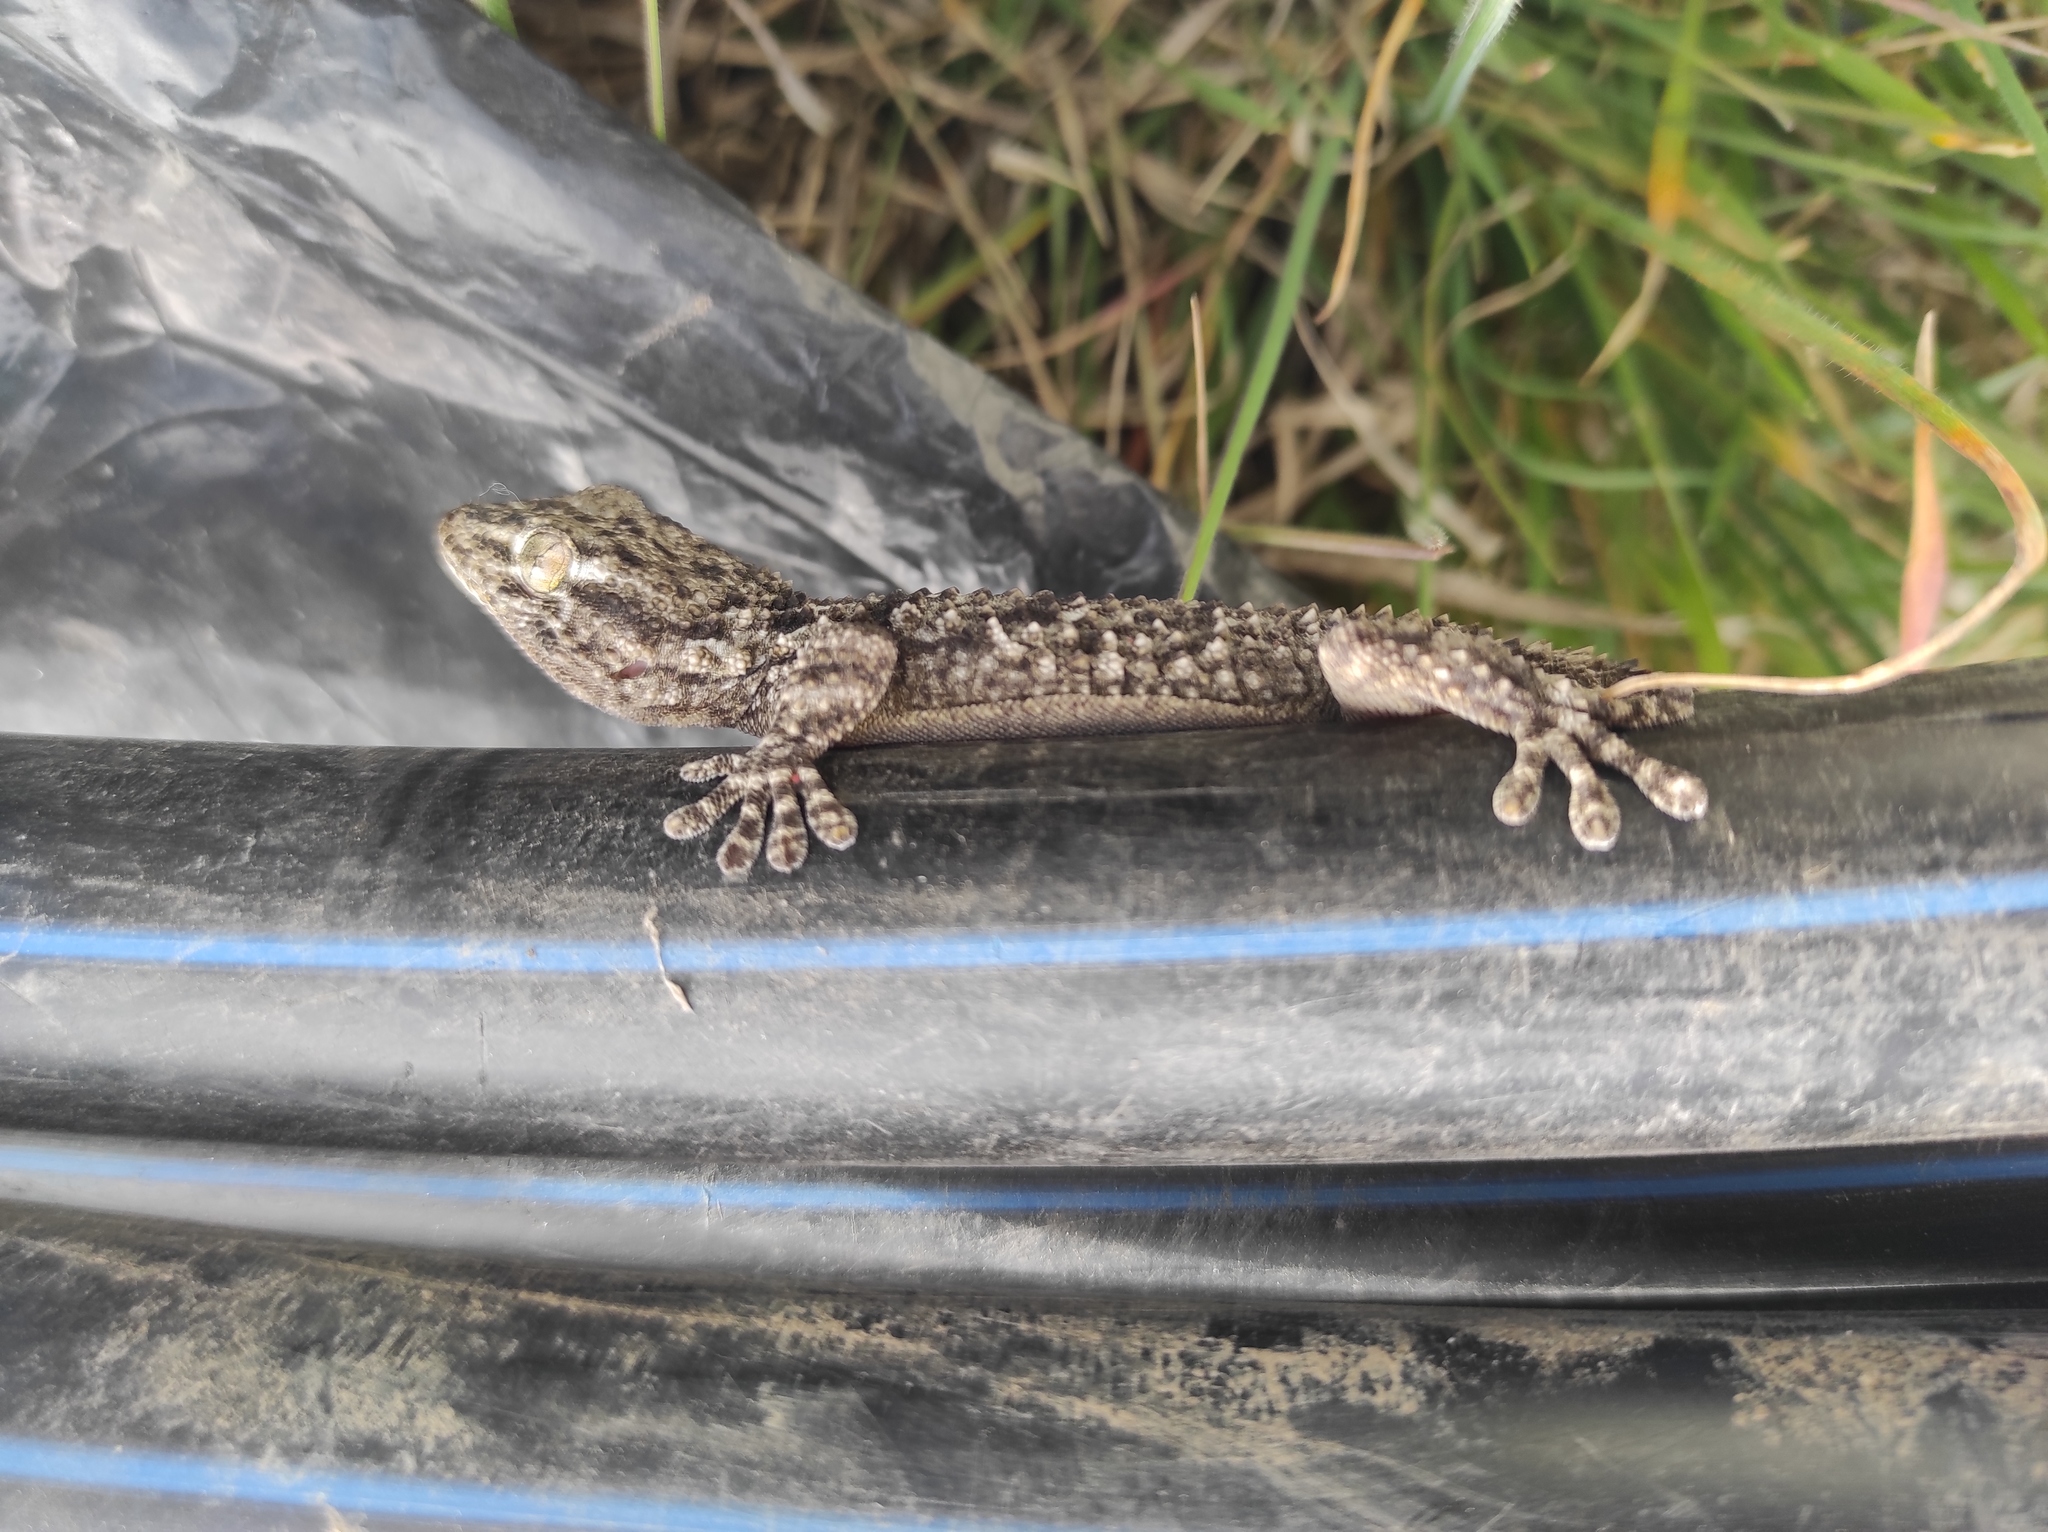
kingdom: Animalia
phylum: Chordata
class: Squamata
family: Phyllodactylidae
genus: Tarentola
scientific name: Tarentola mauritanica
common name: Moorish gecko
